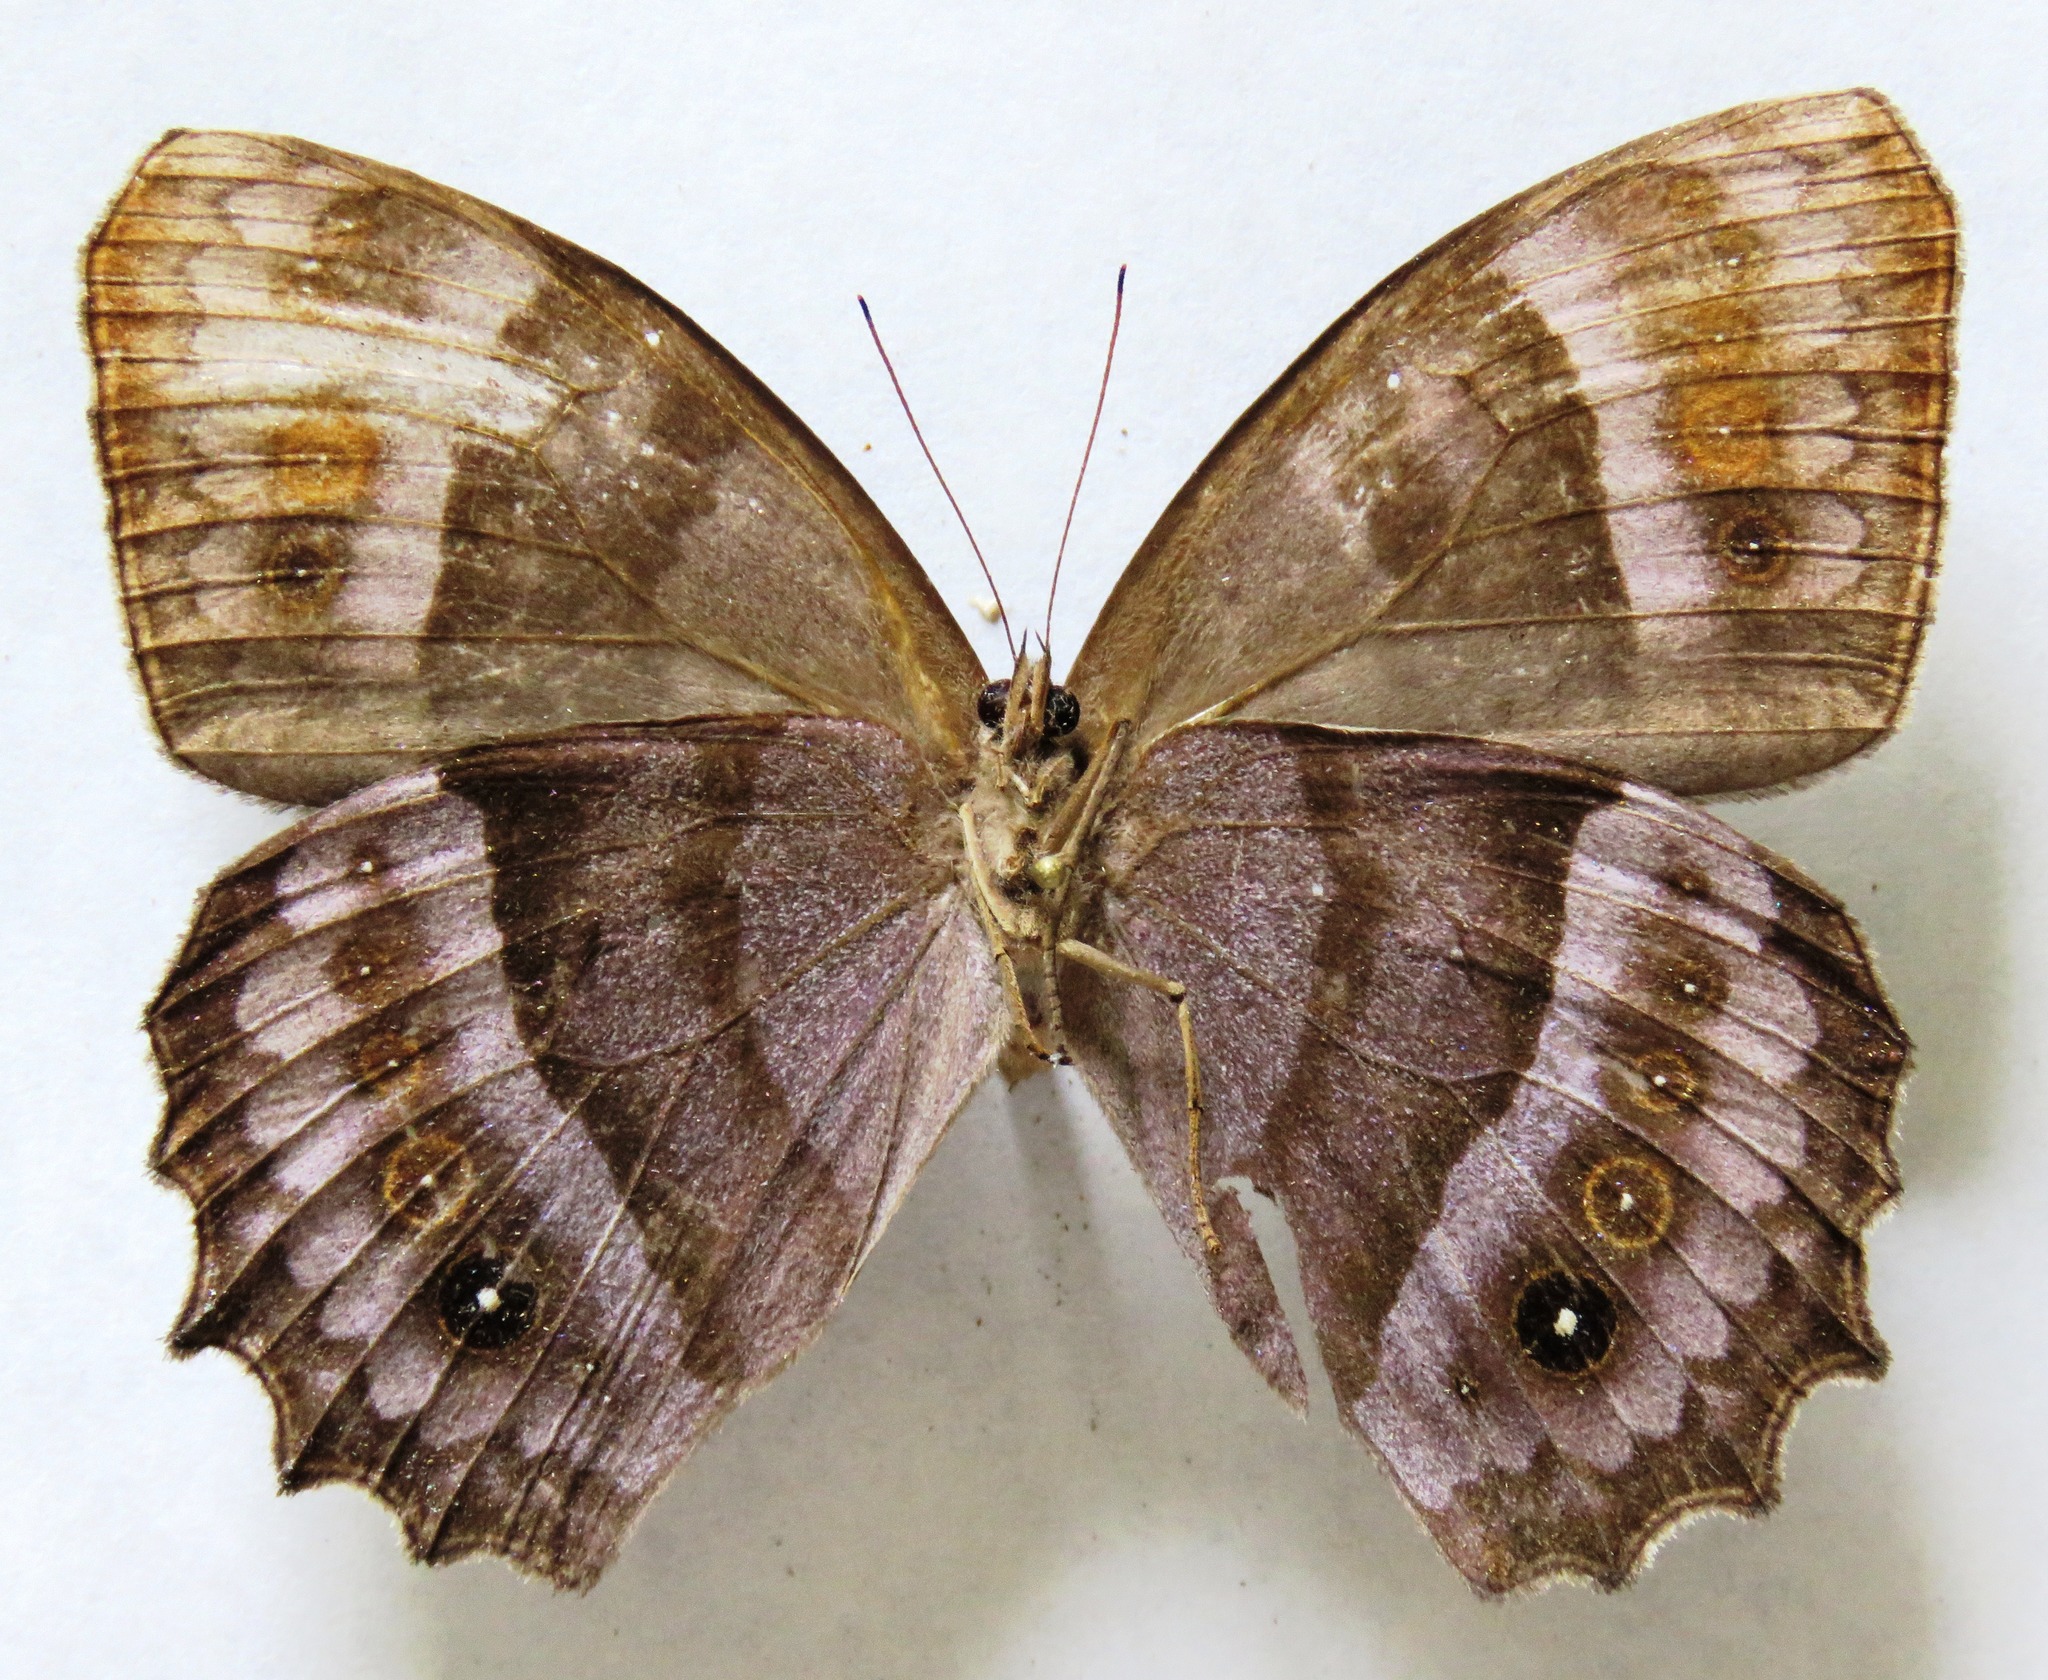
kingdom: Animalia
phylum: Arthropoda
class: Insecta
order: Lepidoptera
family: Nymphalidae
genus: Taygetis
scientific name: Taygetis andromeda
